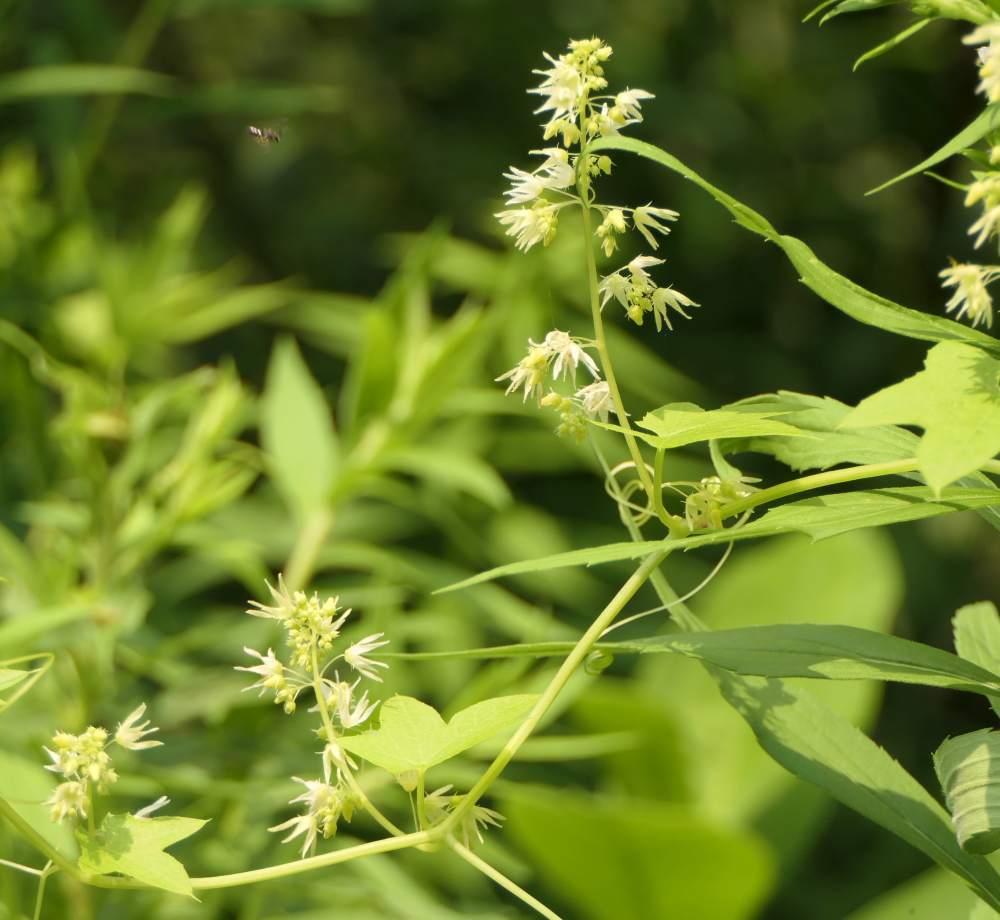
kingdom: Plantae
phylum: Tracheophyta
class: Magnoliopsida
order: Cucurbitales
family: Cucurbitaceae
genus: Echinocystis
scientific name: Echinocystis lobata
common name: Wild cucumber
